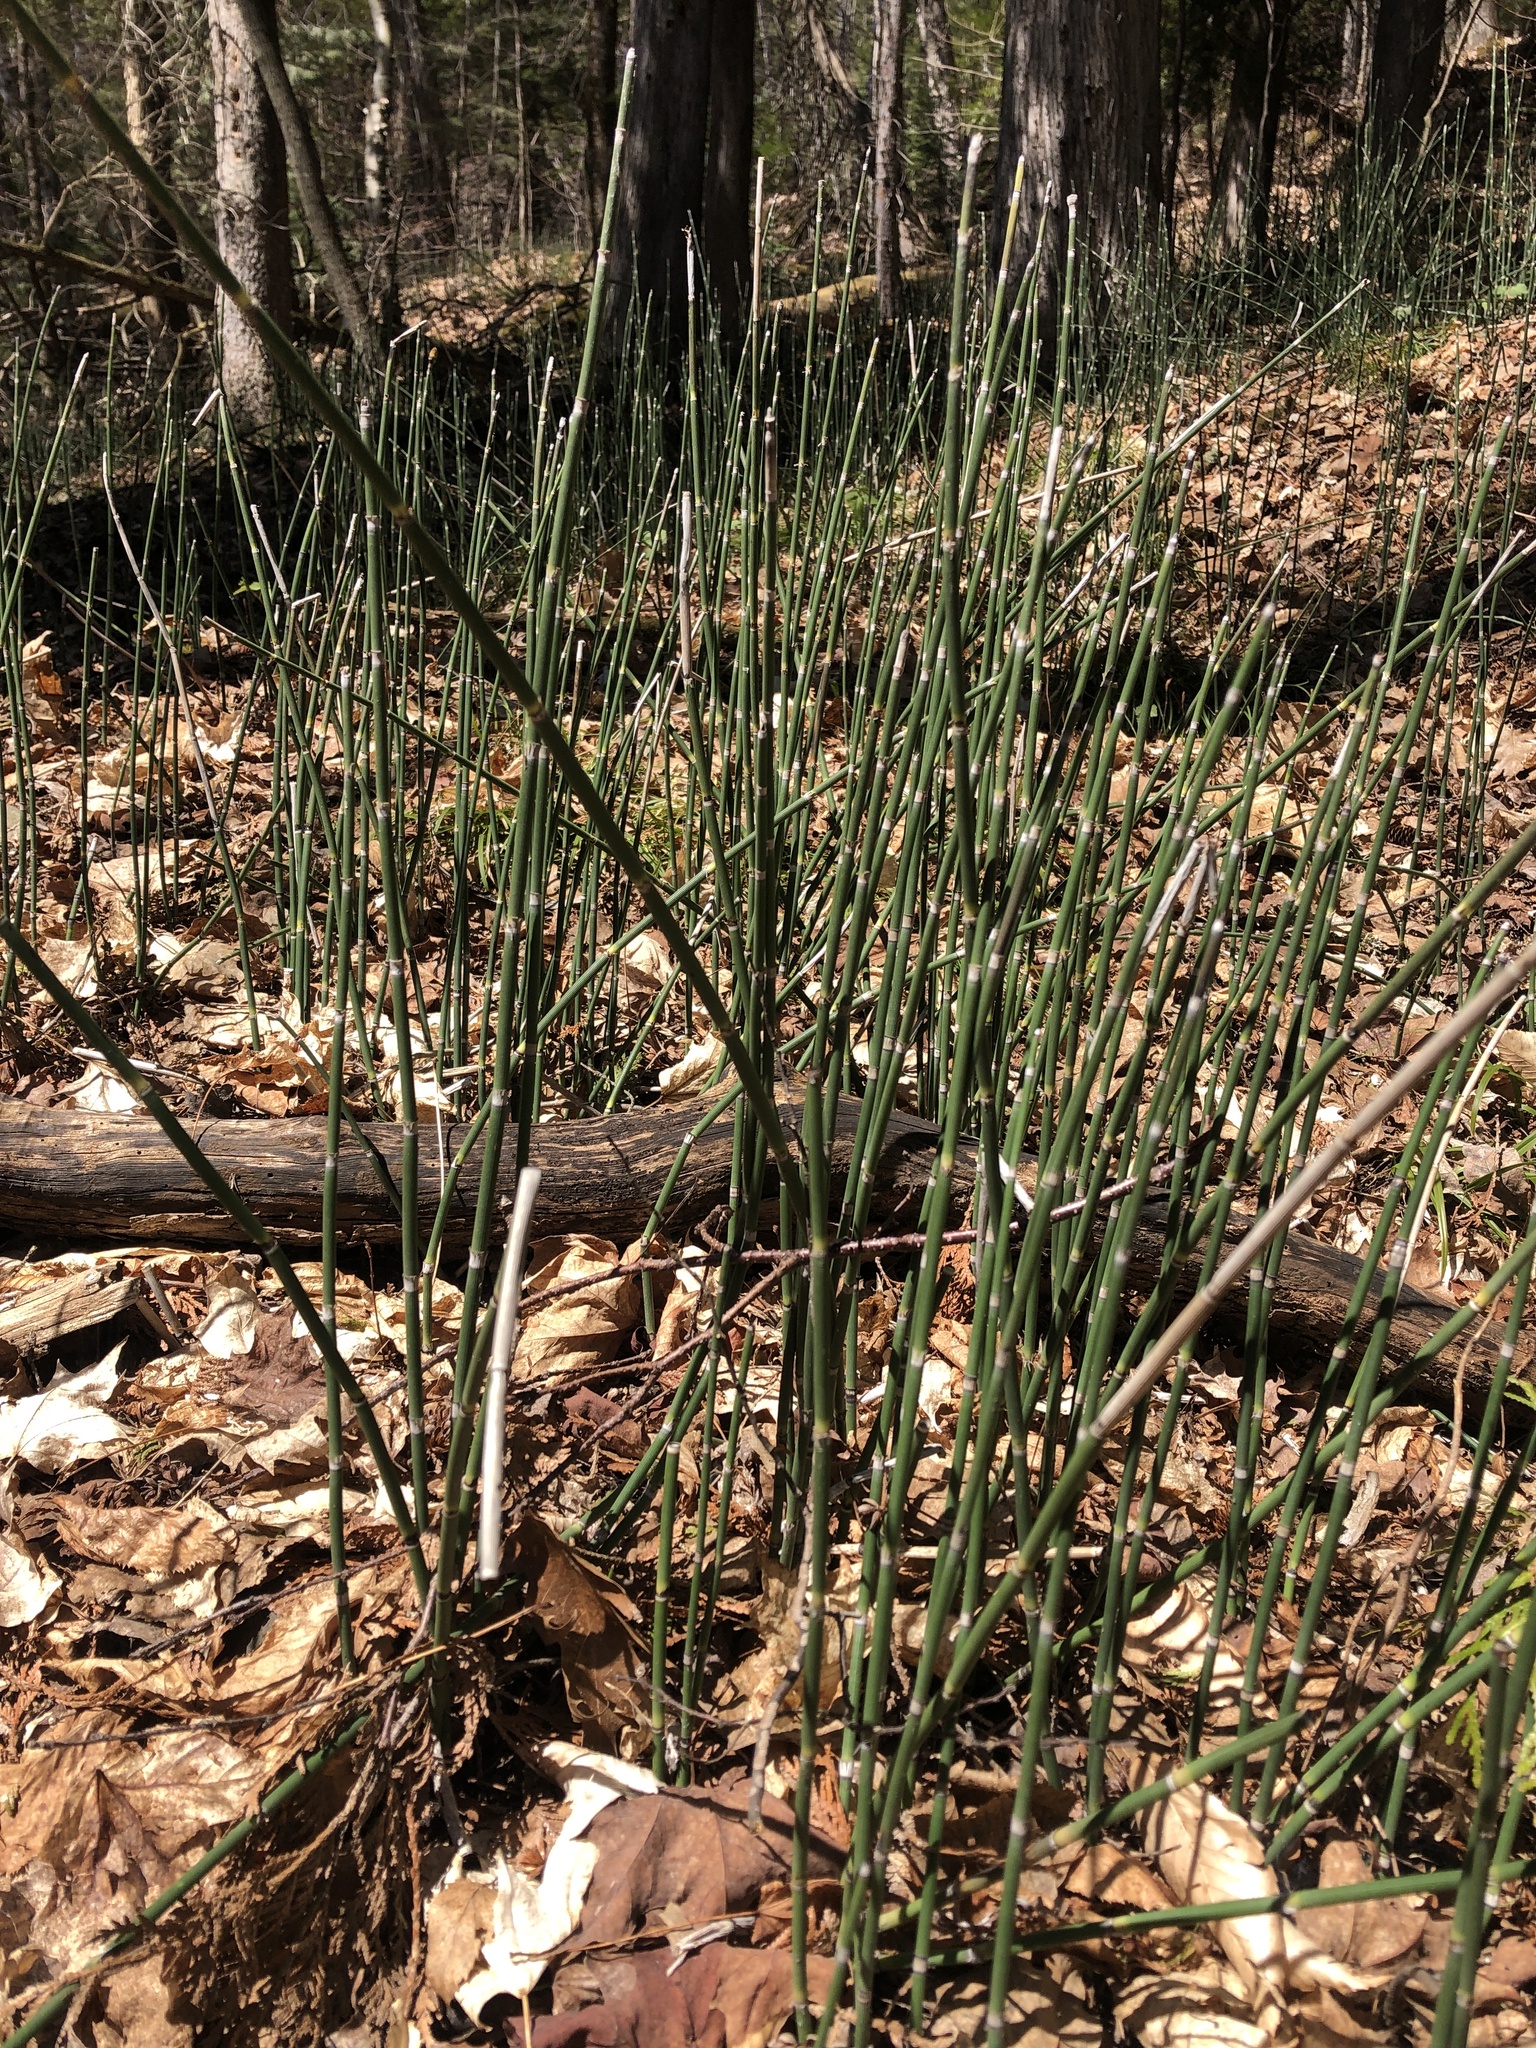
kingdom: Plantae
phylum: Tracheophyta
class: Polypodiopsida
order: Equisetales
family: Equisetaceae
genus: Equisetum
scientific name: Equisetum hyemale
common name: Rough horsetail
